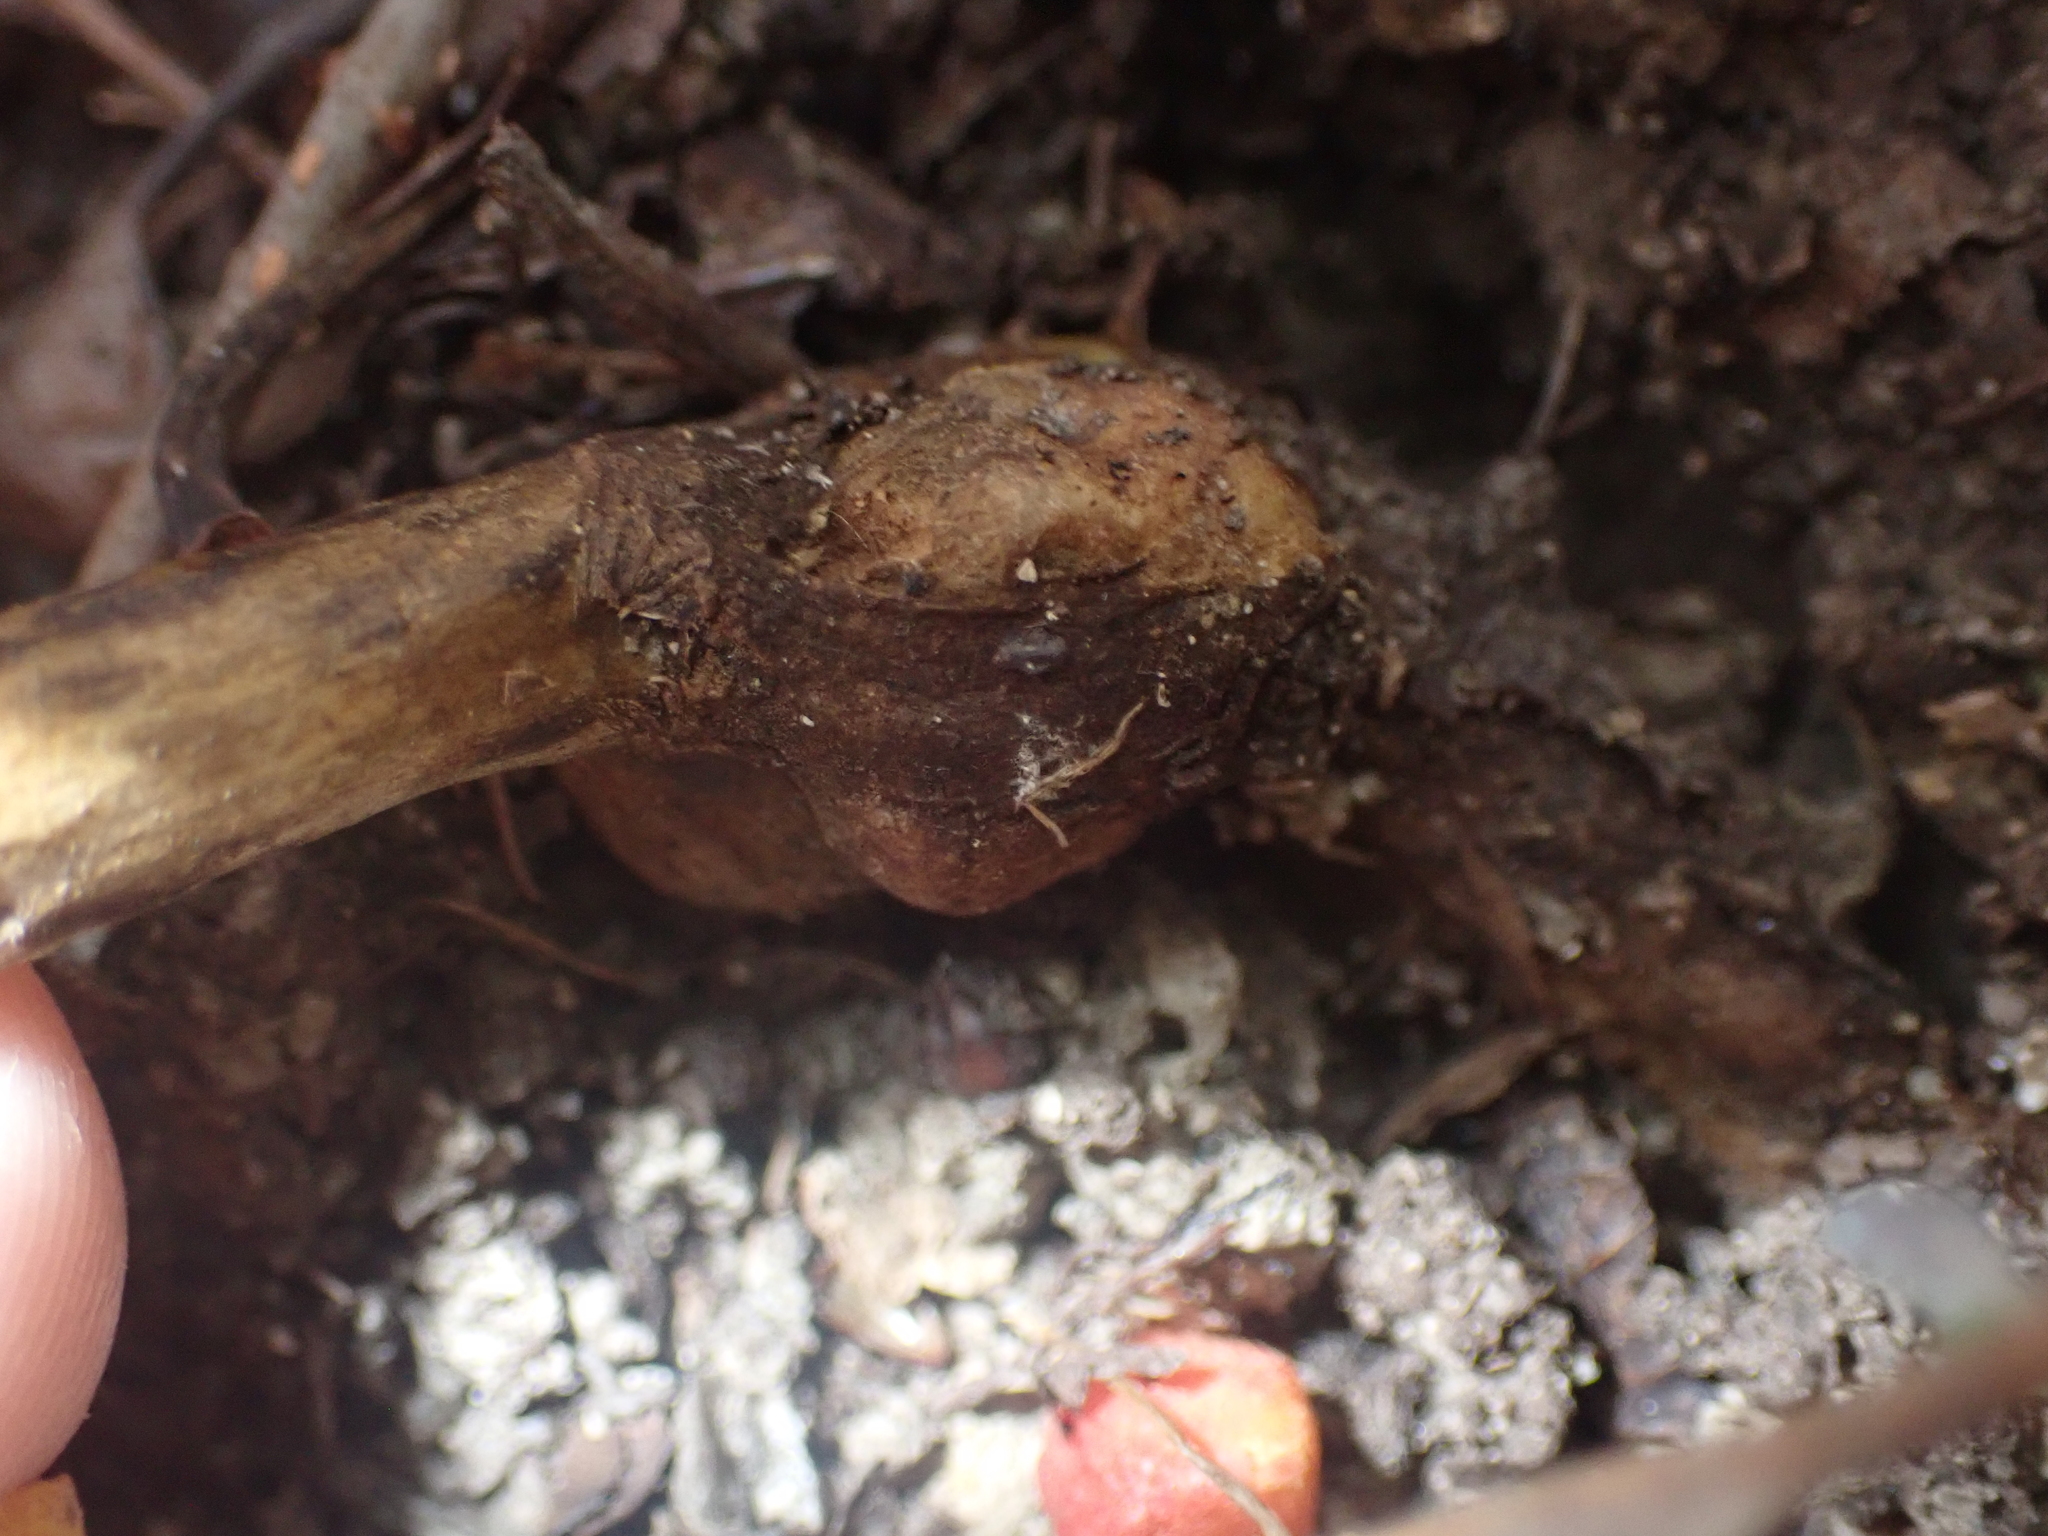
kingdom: Animalia
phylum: Arthropoda
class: Insecta
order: Hymenoptera
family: Cynipidae
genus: Aulacidea
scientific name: Aulacidea
